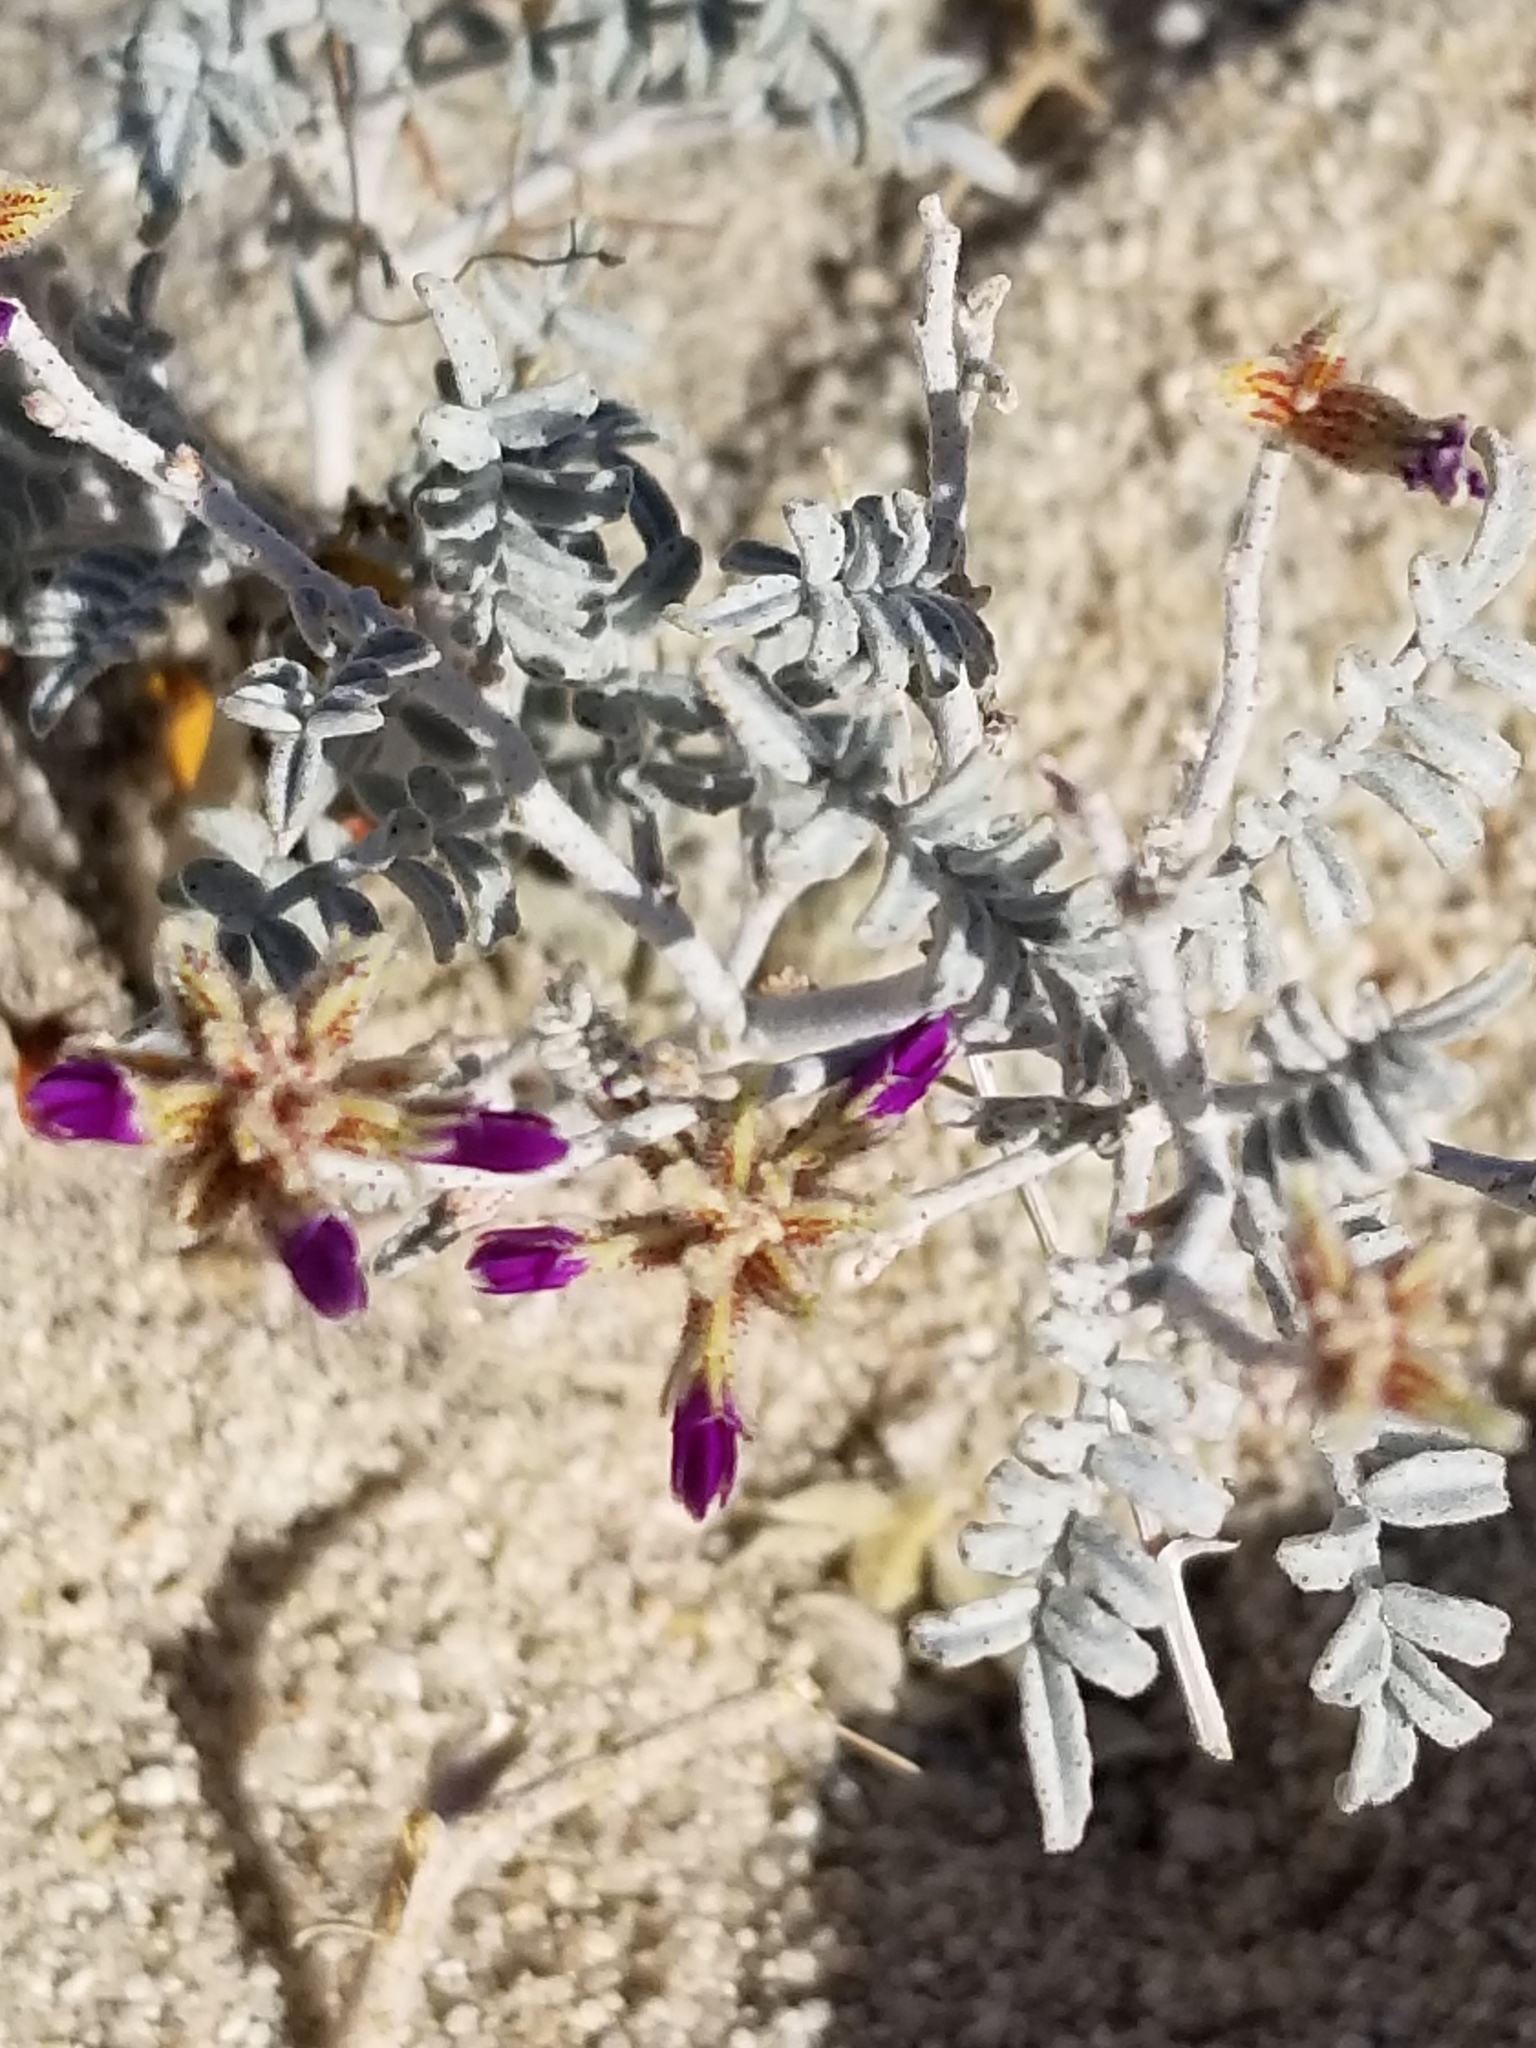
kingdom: Plantae
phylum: Tracheophyta
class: Magnoliopsida
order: Fabales
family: Fabaceae
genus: Psorothamnus
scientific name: Psorothamnus emoryi
